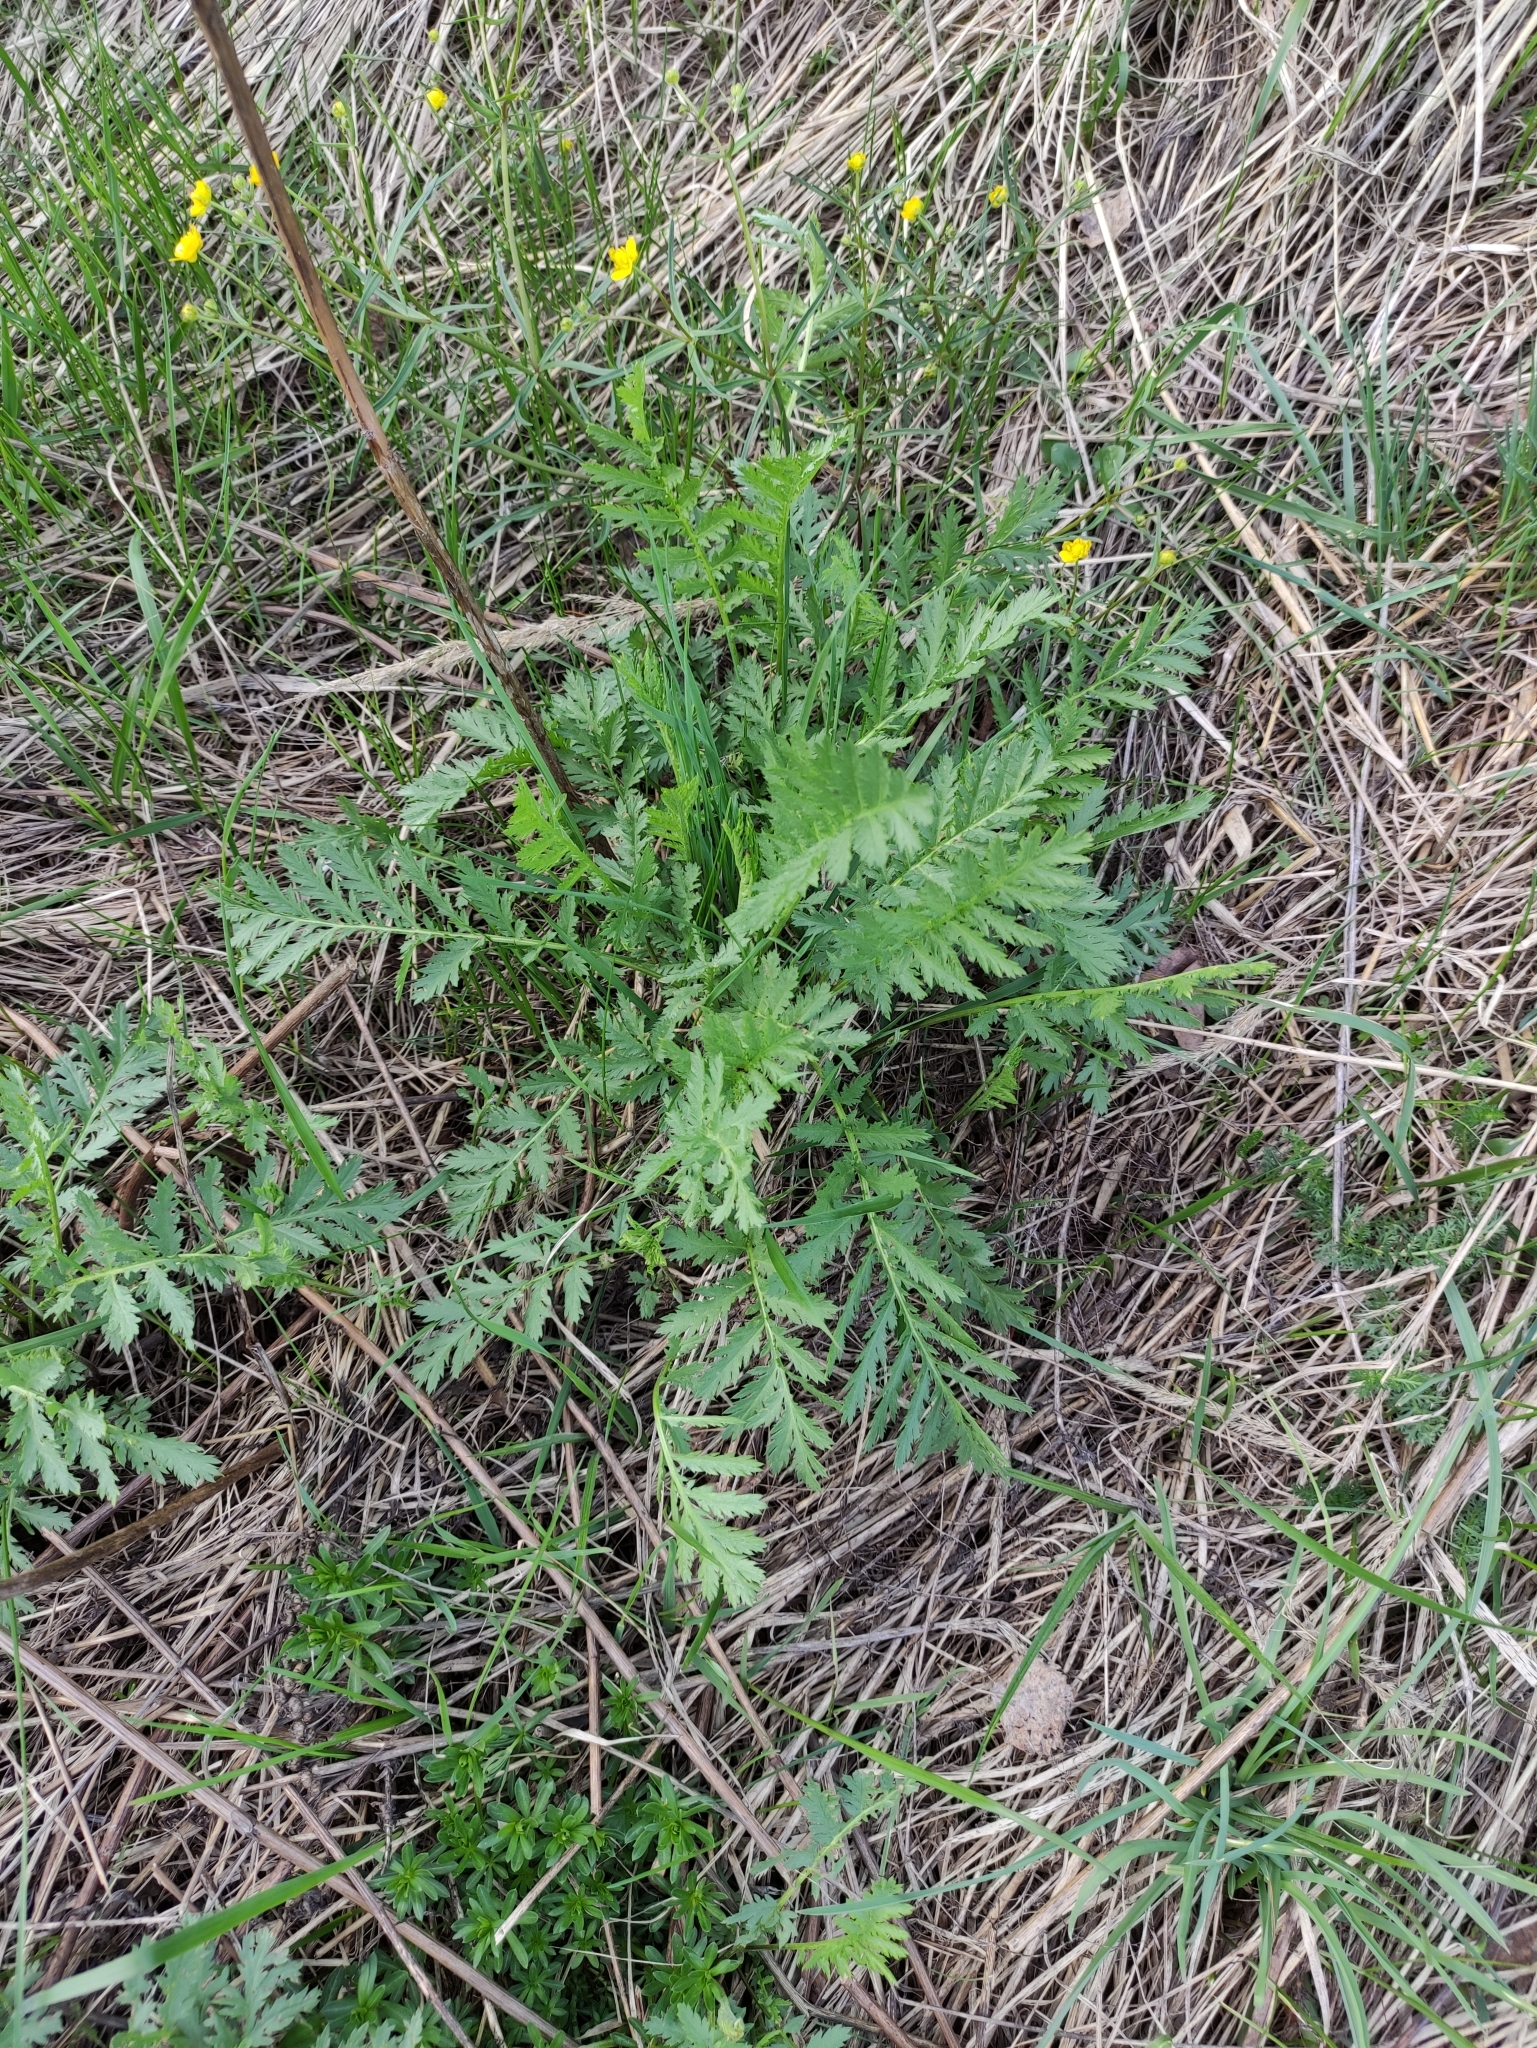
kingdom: Plantae
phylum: Tracheophyta
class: Magnoliopsida
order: Asterales
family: Asteraceae
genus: Tanacetum
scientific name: Tanacetum vulgare
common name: Common tansy
